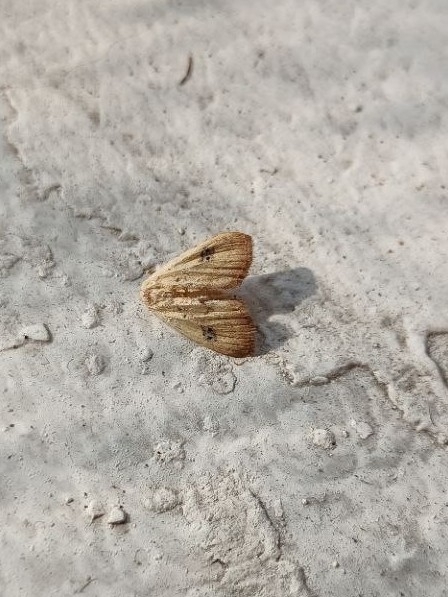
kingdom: Animalia
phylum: Arthropoda
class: Insecta
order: Lepidoptera
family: Erebidae
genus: Rivula
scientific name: Rivula sericealis
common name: Straw dot
